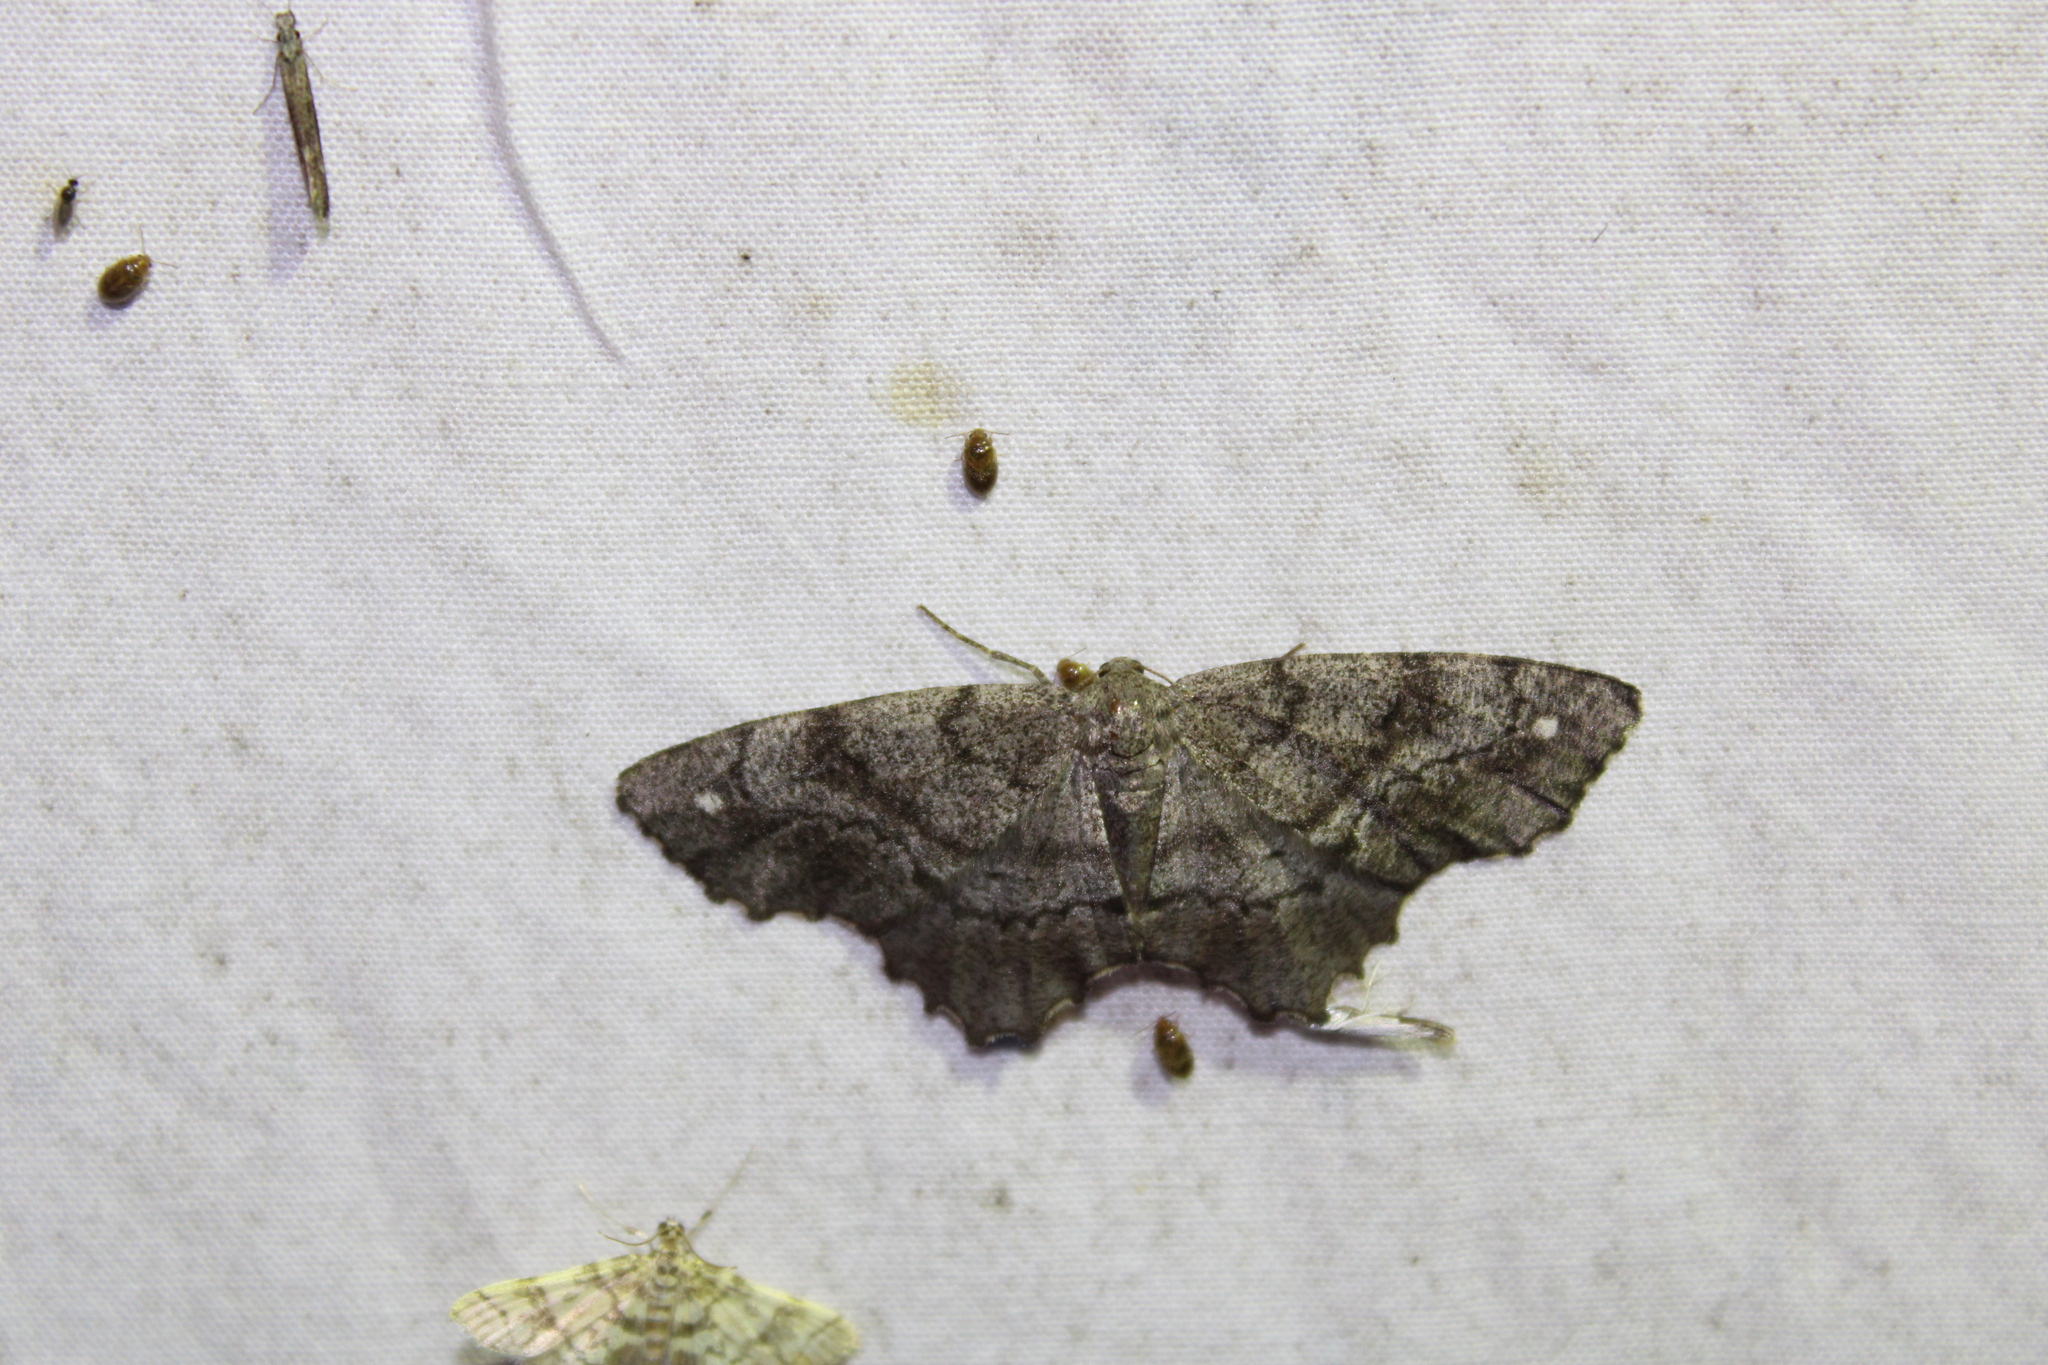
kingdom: Animalia
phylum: Arthropoda
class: Insecta
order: Lepidoptera
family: Geometridae
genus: Hypagyrtis
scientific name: Hypagyrtis unipunctata
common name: One-spotted variant
